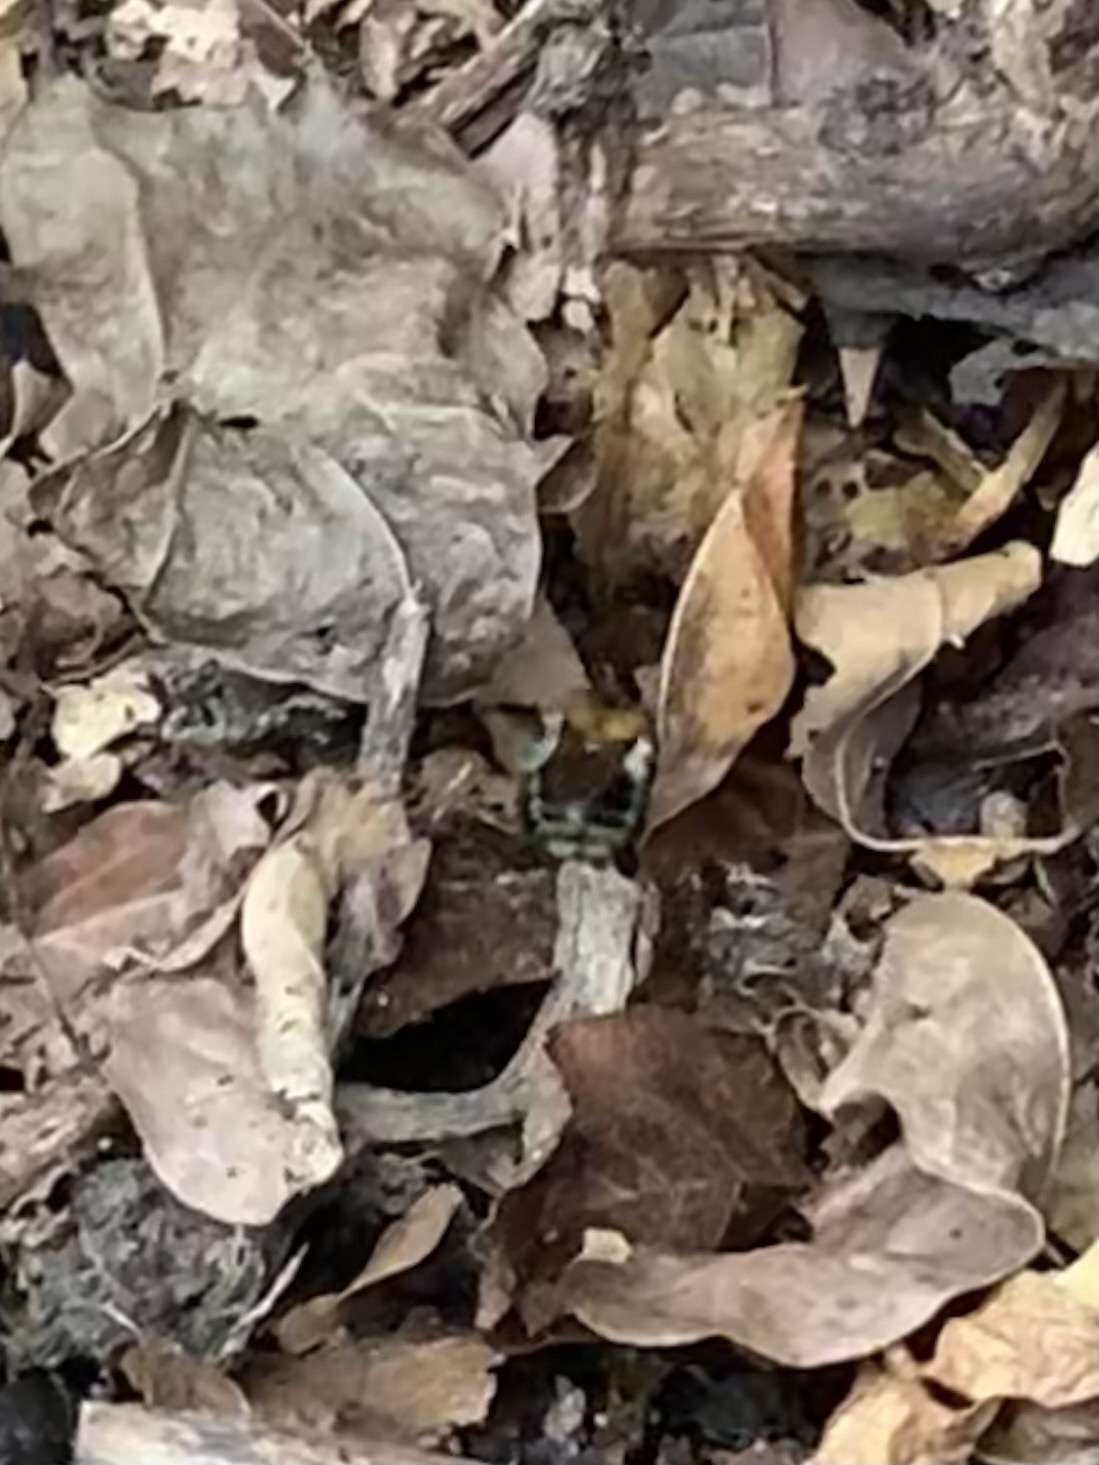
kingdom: Animalia
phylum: Arthropoda
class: Insecta
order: Hymenoptera
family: Apidae
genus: Bombus
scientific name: Bombus pascuorum
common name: Common carder bee
